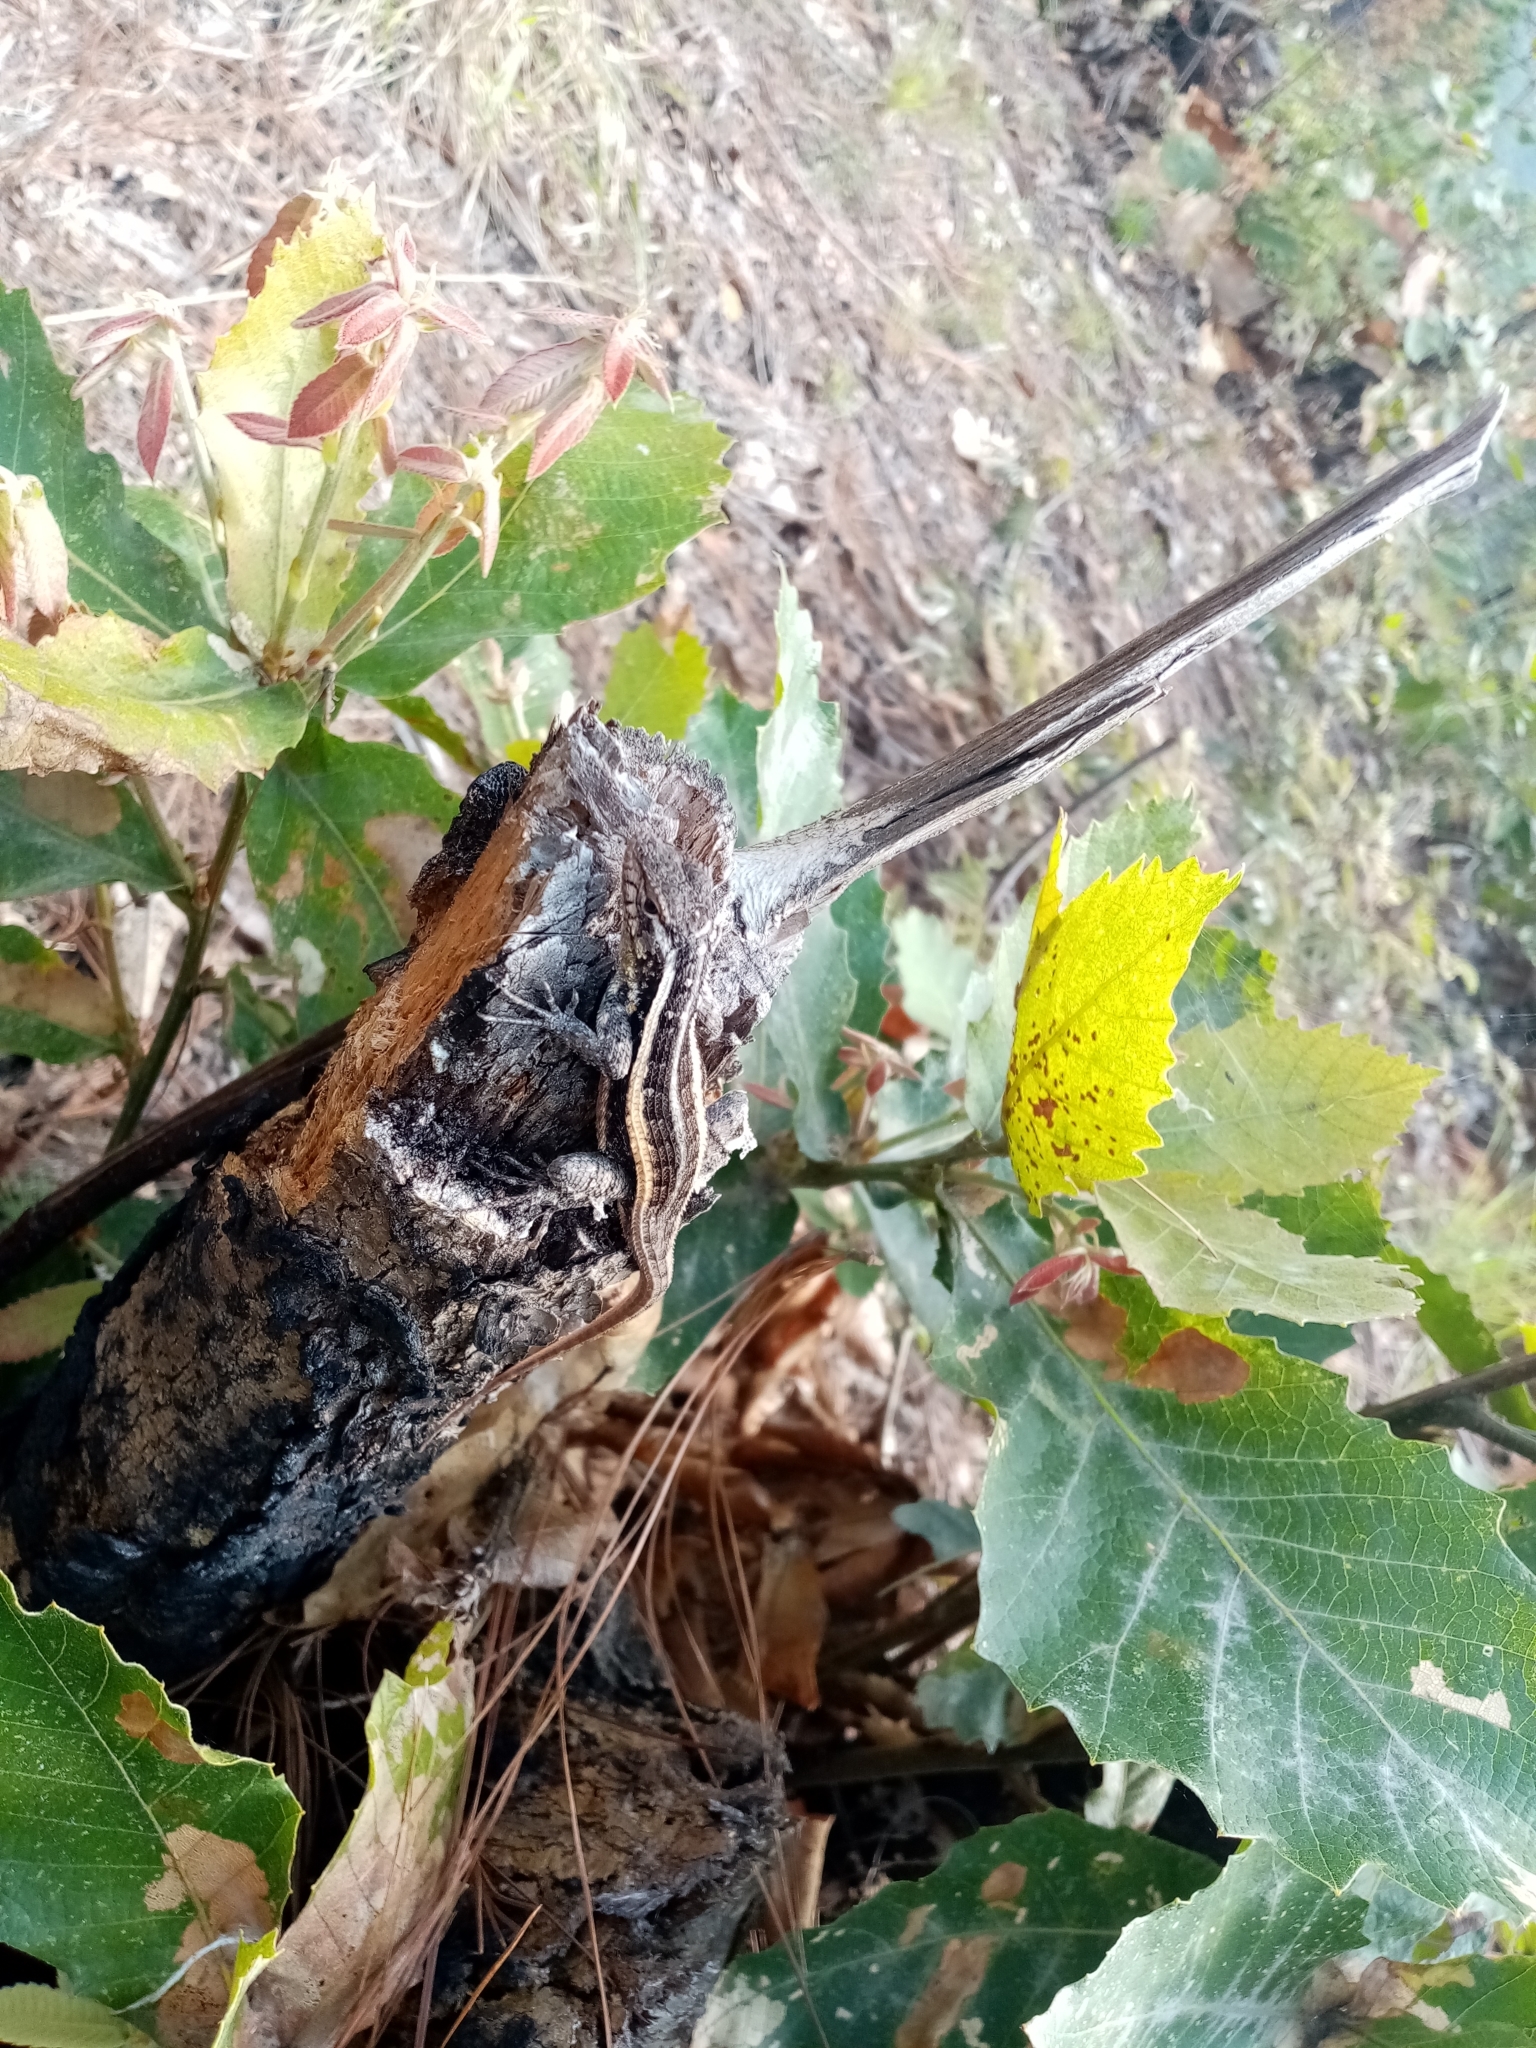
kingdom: Animalia
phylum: Chordata
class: Squamata
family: Phrynosomatidae
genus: Sceloporus
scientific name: Sceloporus variabilis
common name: Rosebelly lizard
